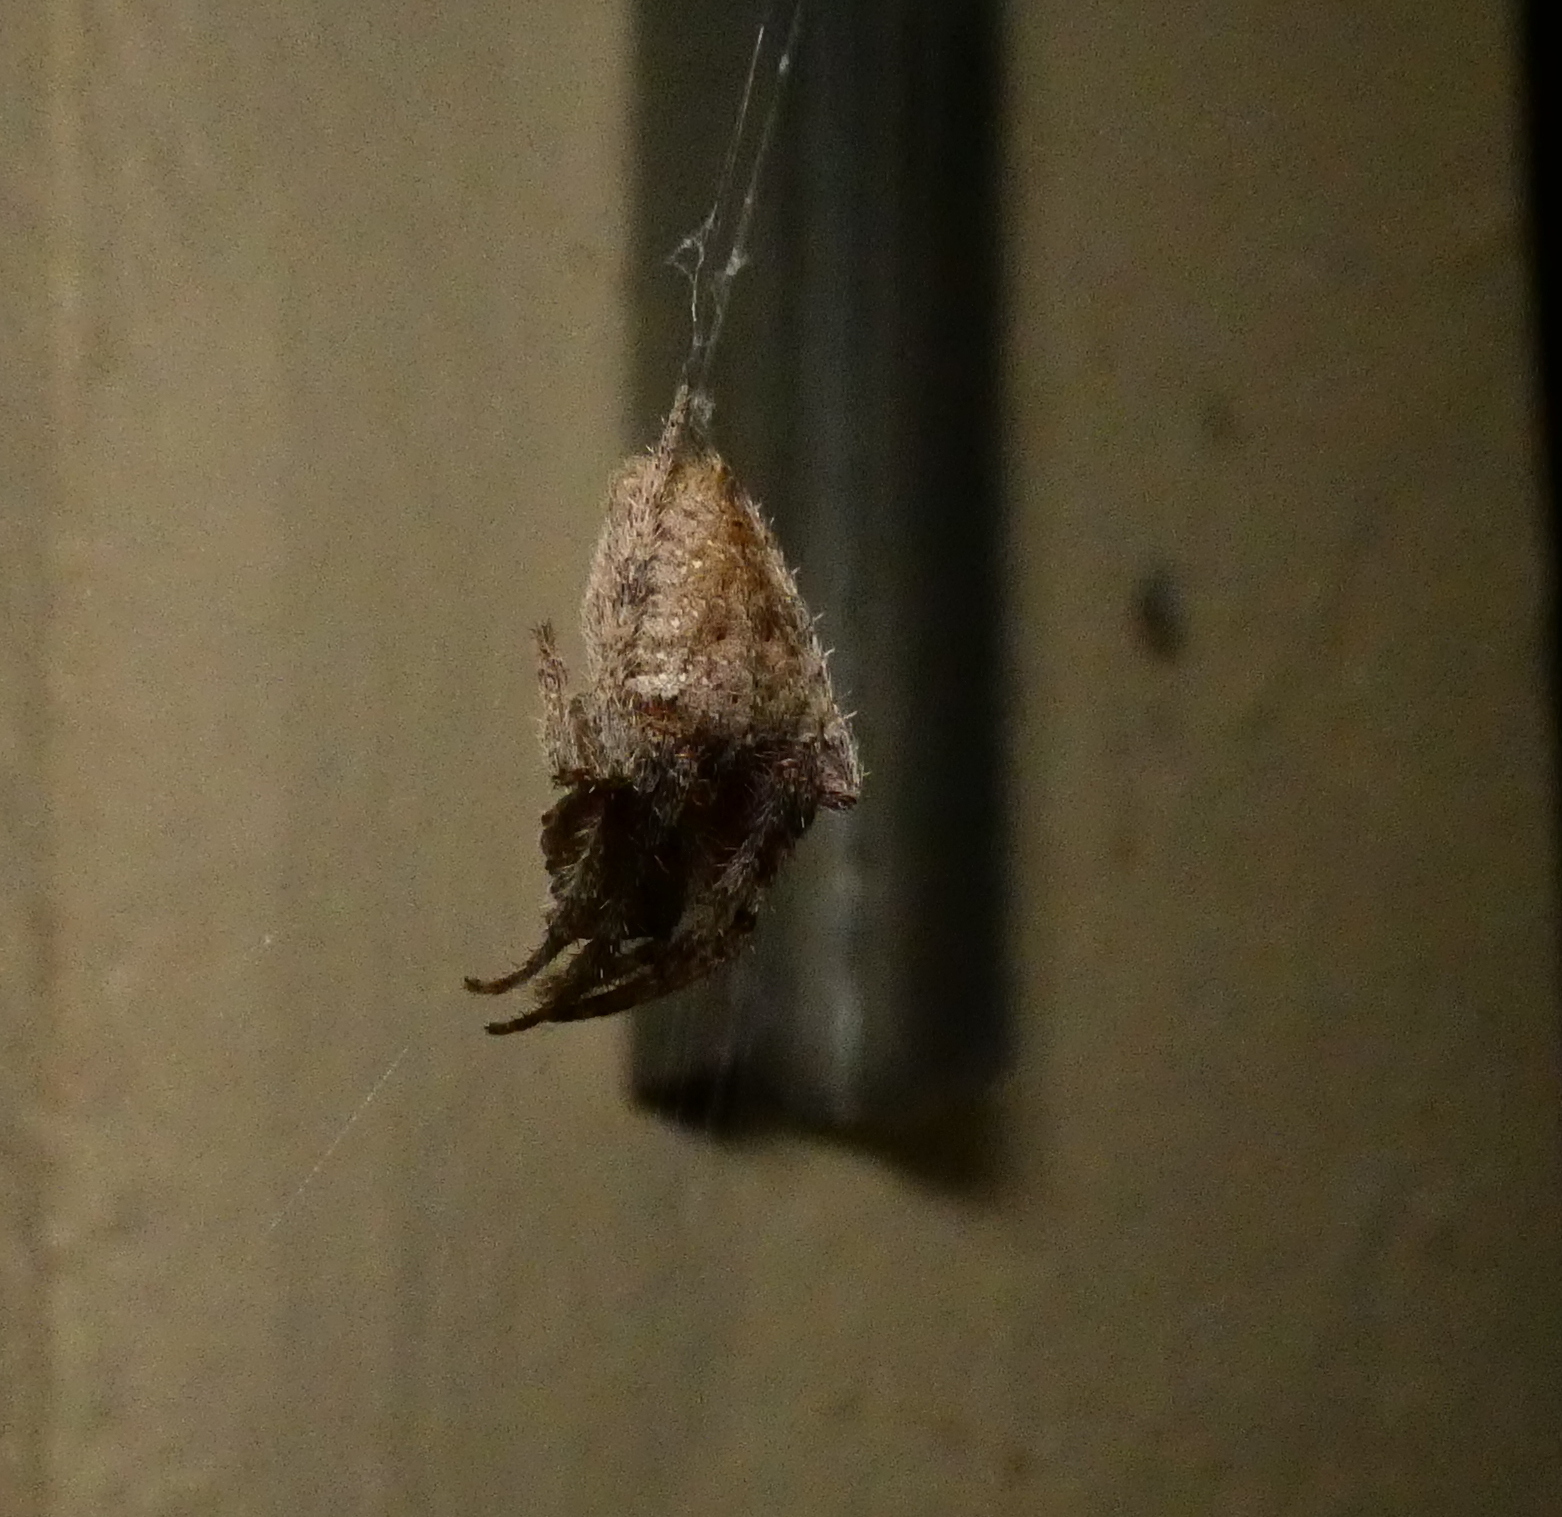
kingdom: Animalia
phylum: Arthropoda
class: Arachnida
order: Araneae
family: Araneidae
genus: Eriophora
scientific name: Eriophora edax
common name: Orb weavers
